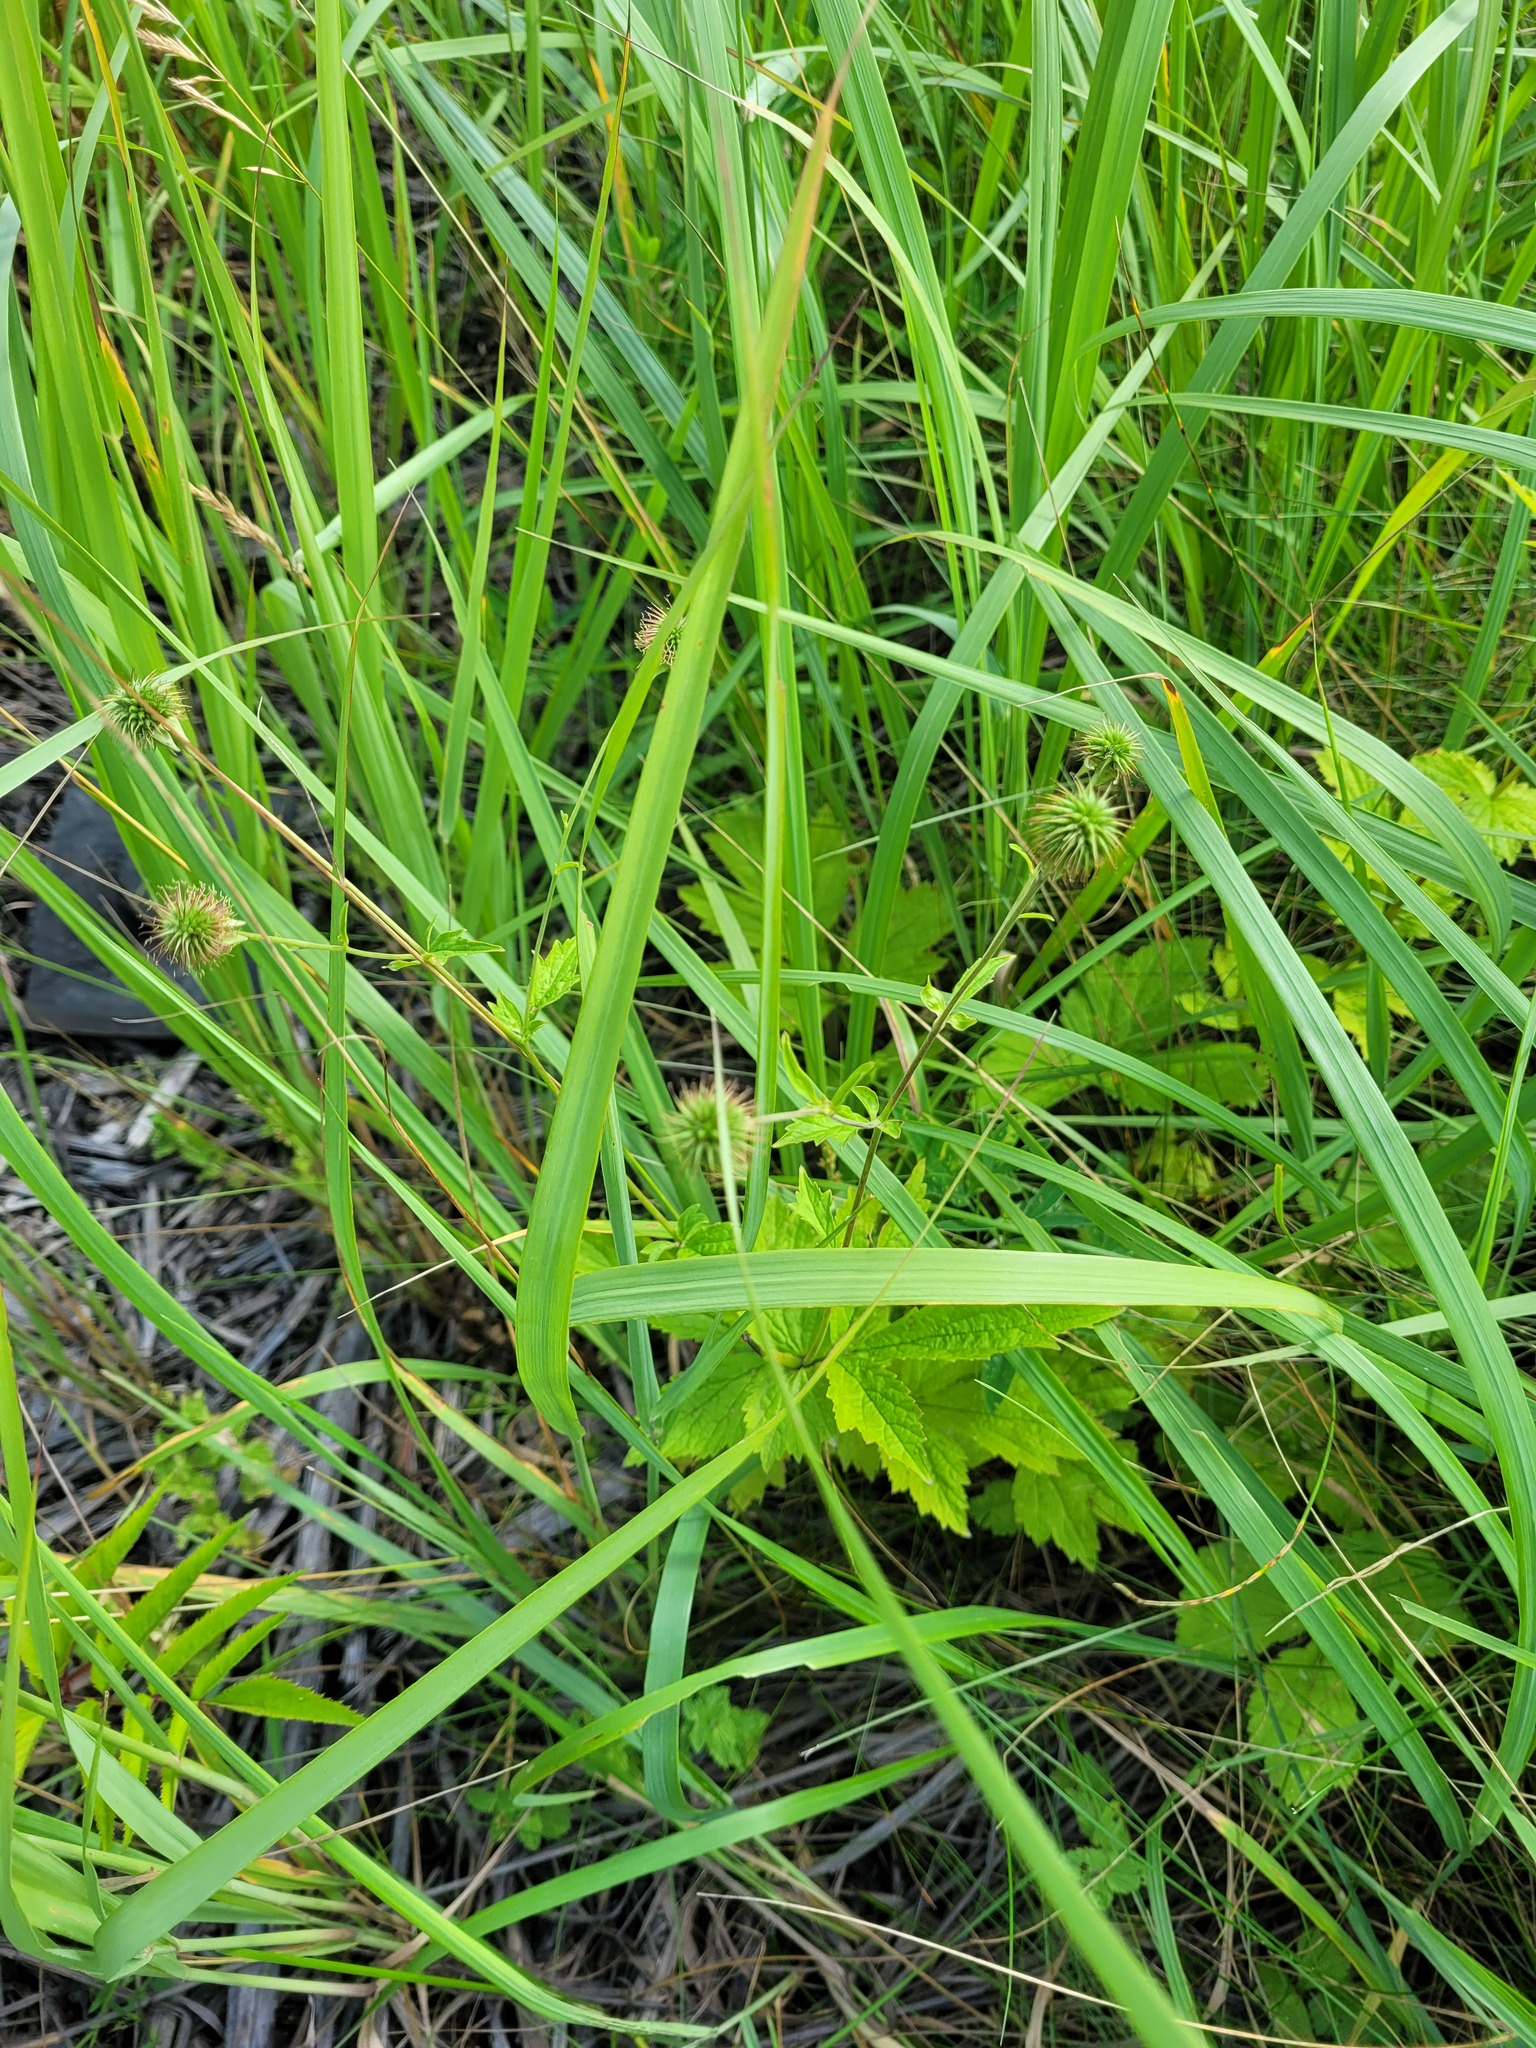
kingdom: Plantae
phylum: Tracheophyta
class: Magnoliopsida
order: Rosales
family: Rosaceae
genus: Geum
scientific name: Geum urbanum
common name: Wood avens
